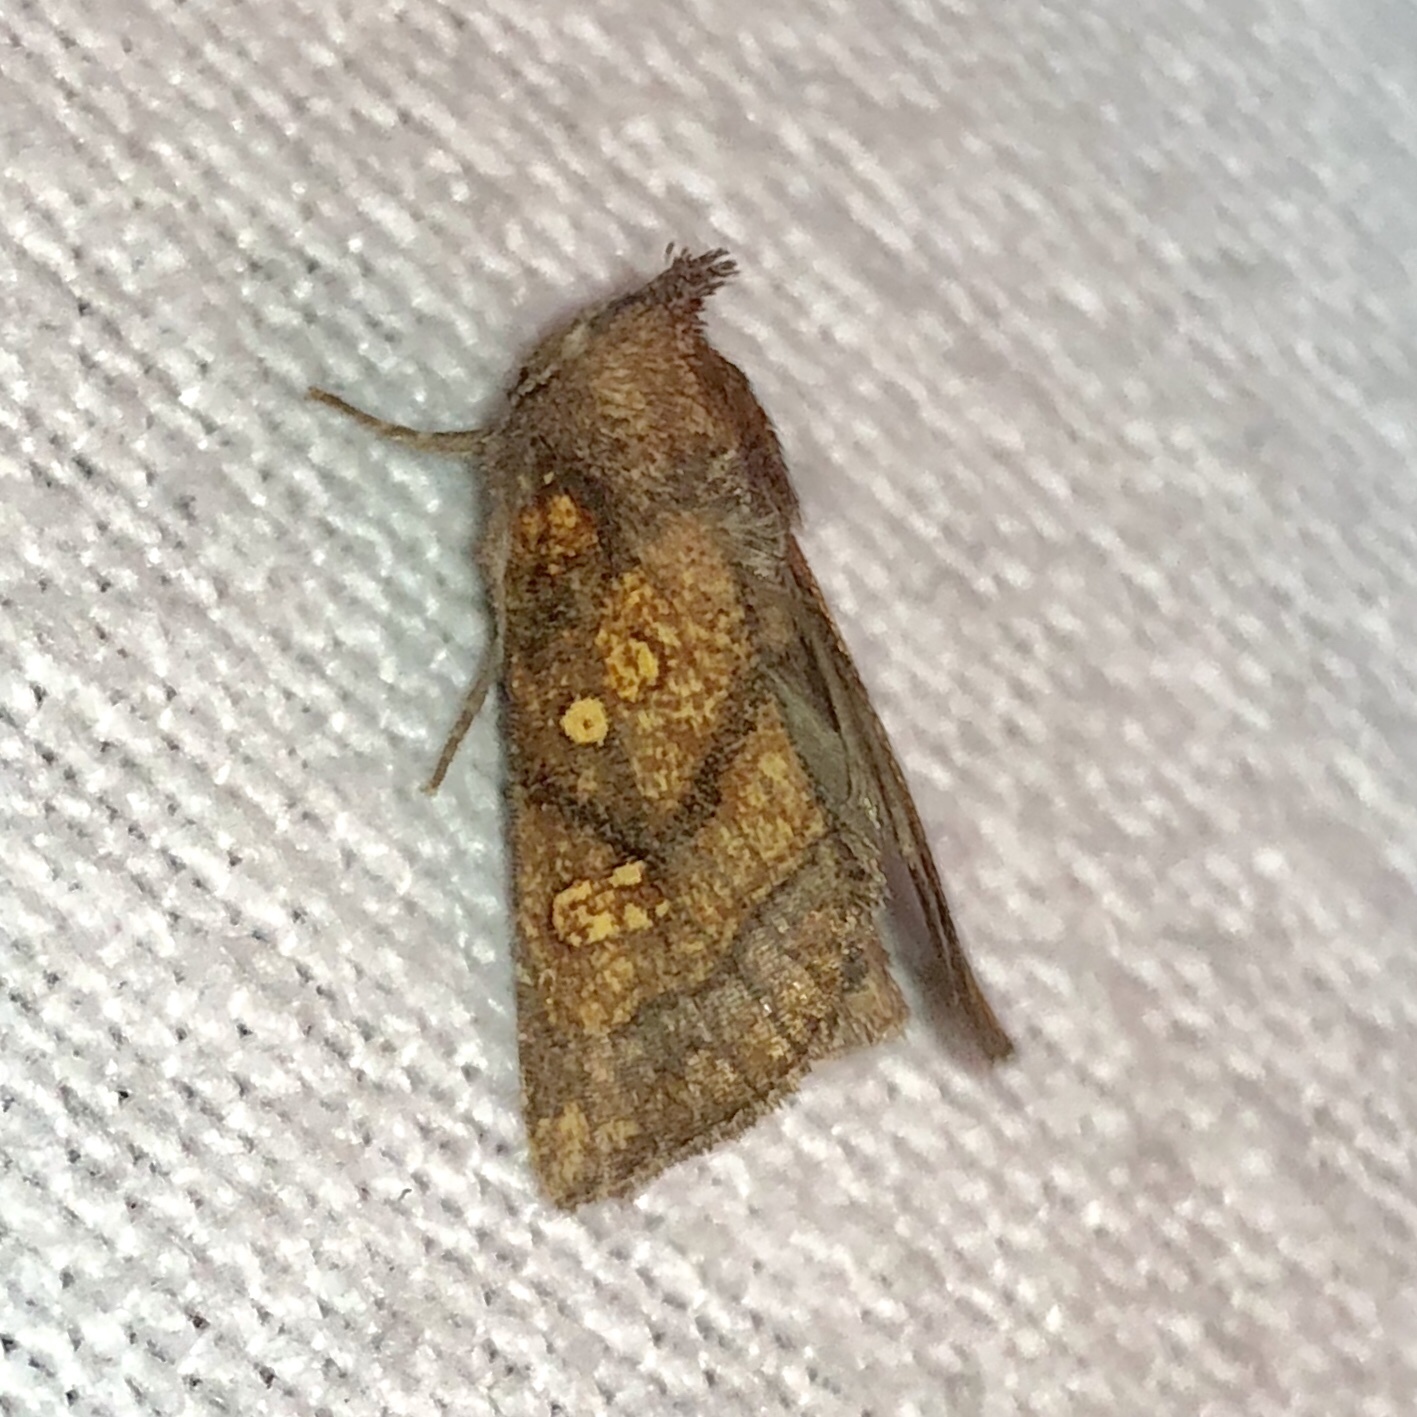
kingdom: Animalia
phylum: Arthropoda
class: Insecta
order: Lepidoptera
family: Noctuidae
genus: Papaipema
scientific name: Papaipema impecuniosa
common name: Aster borer moth
